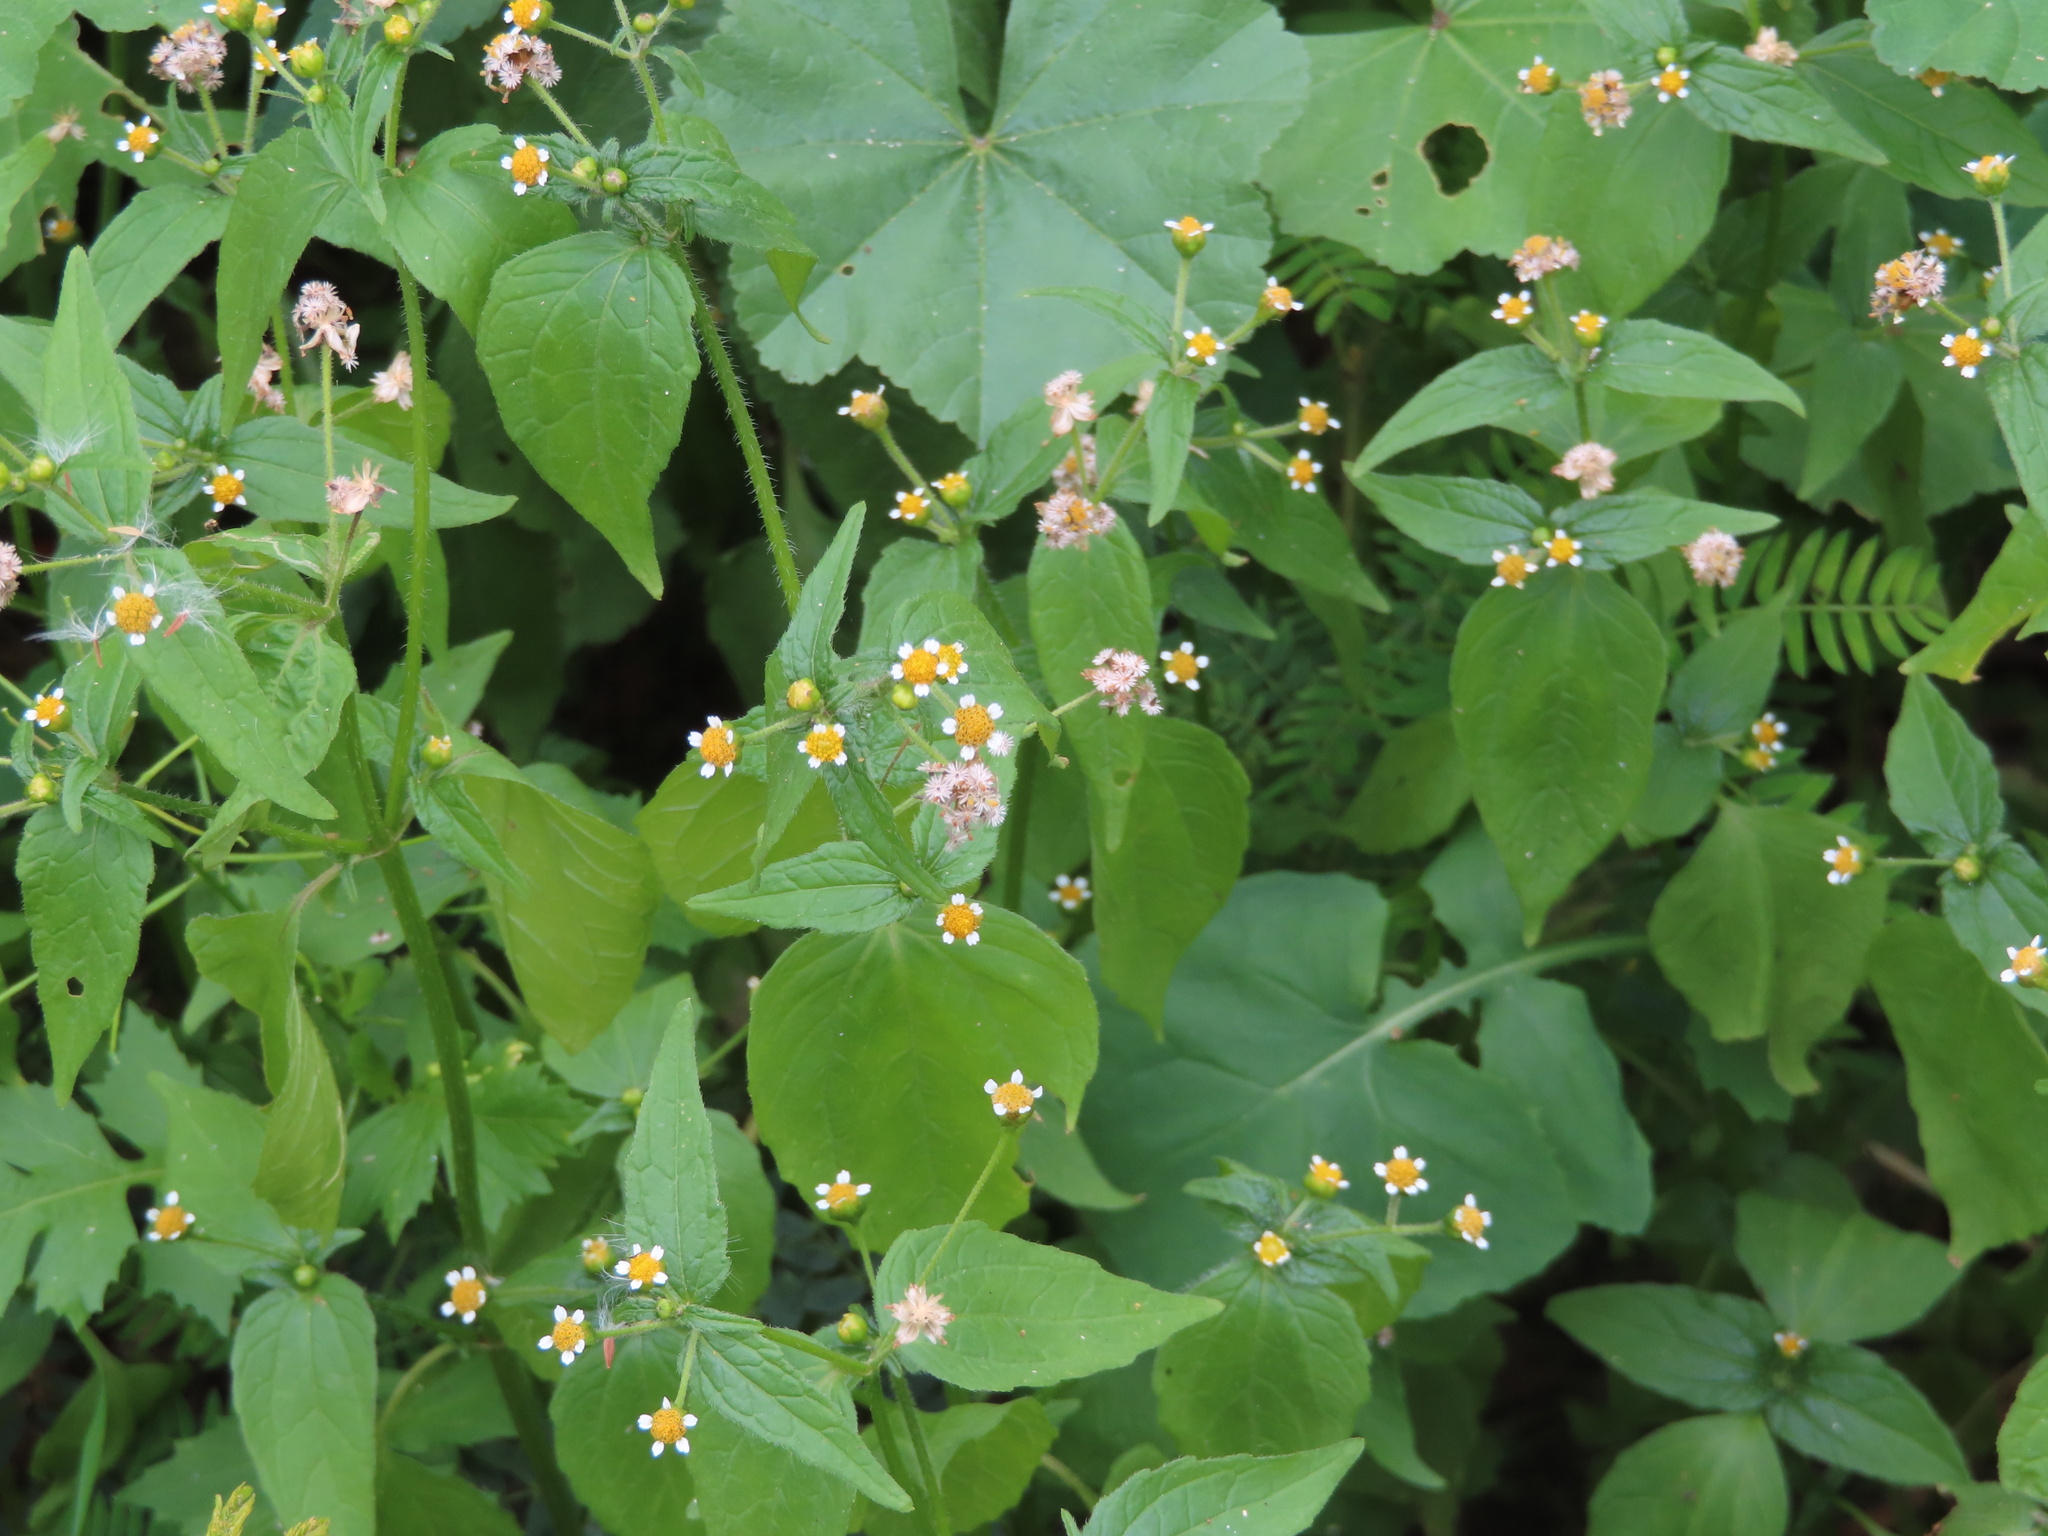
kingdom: Plantae
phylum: Tracheophyta
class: Magnoliopsida
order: Asterales
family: Asteraceae
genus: Galinsoga
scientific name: Galinsoga quadriradiata
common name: Shaggy soldier
